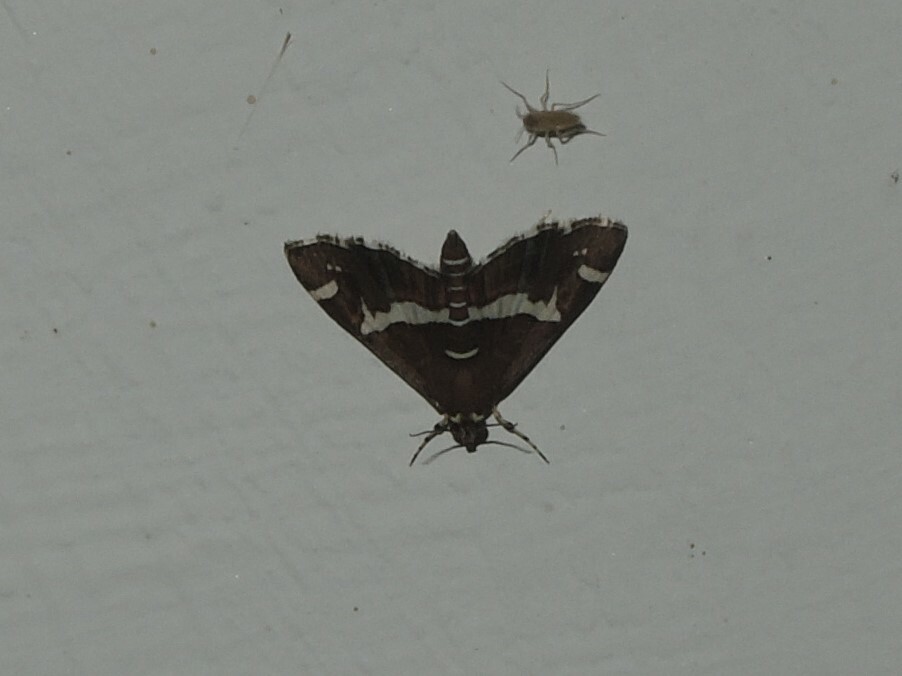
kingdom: Animalia
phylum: Arthropoda
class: Insecta
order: Lepidoptera
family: Crambidae
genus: Spoladea
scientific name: Spoladea recurvalis
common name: Beet webworm moth
